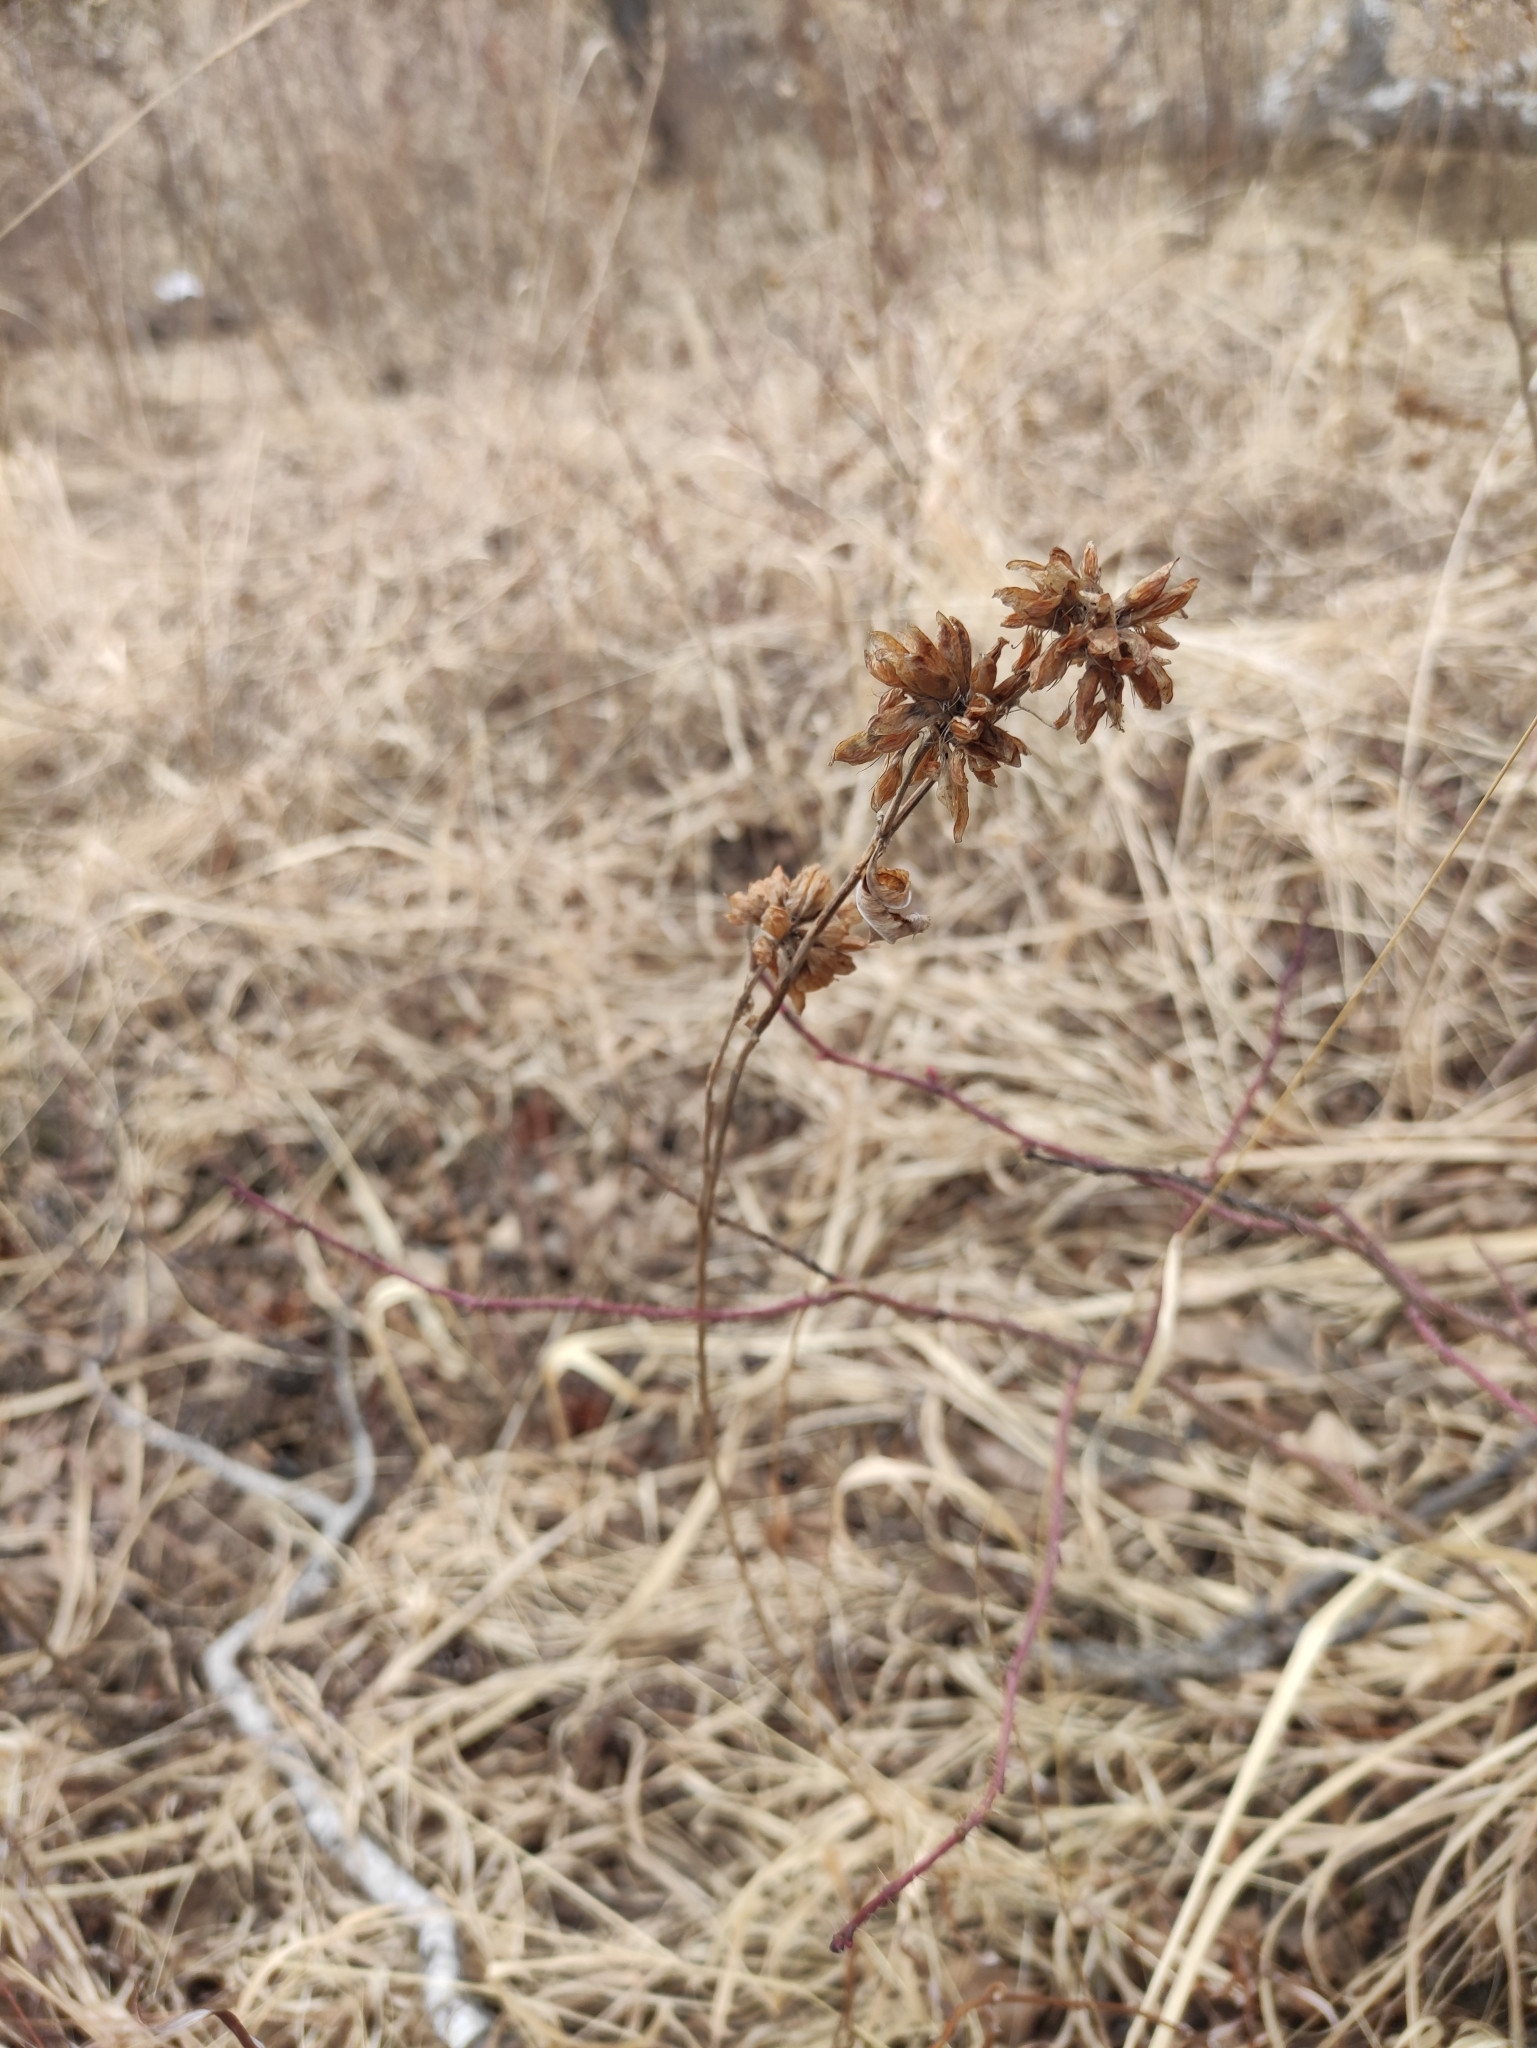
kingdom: Plantae
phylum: Tracheophyta
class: Magnoliopsida
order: Fabales
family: Fabaceae
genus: Trifolium
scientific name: Trifolium lupinaster
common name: Lupine clover
